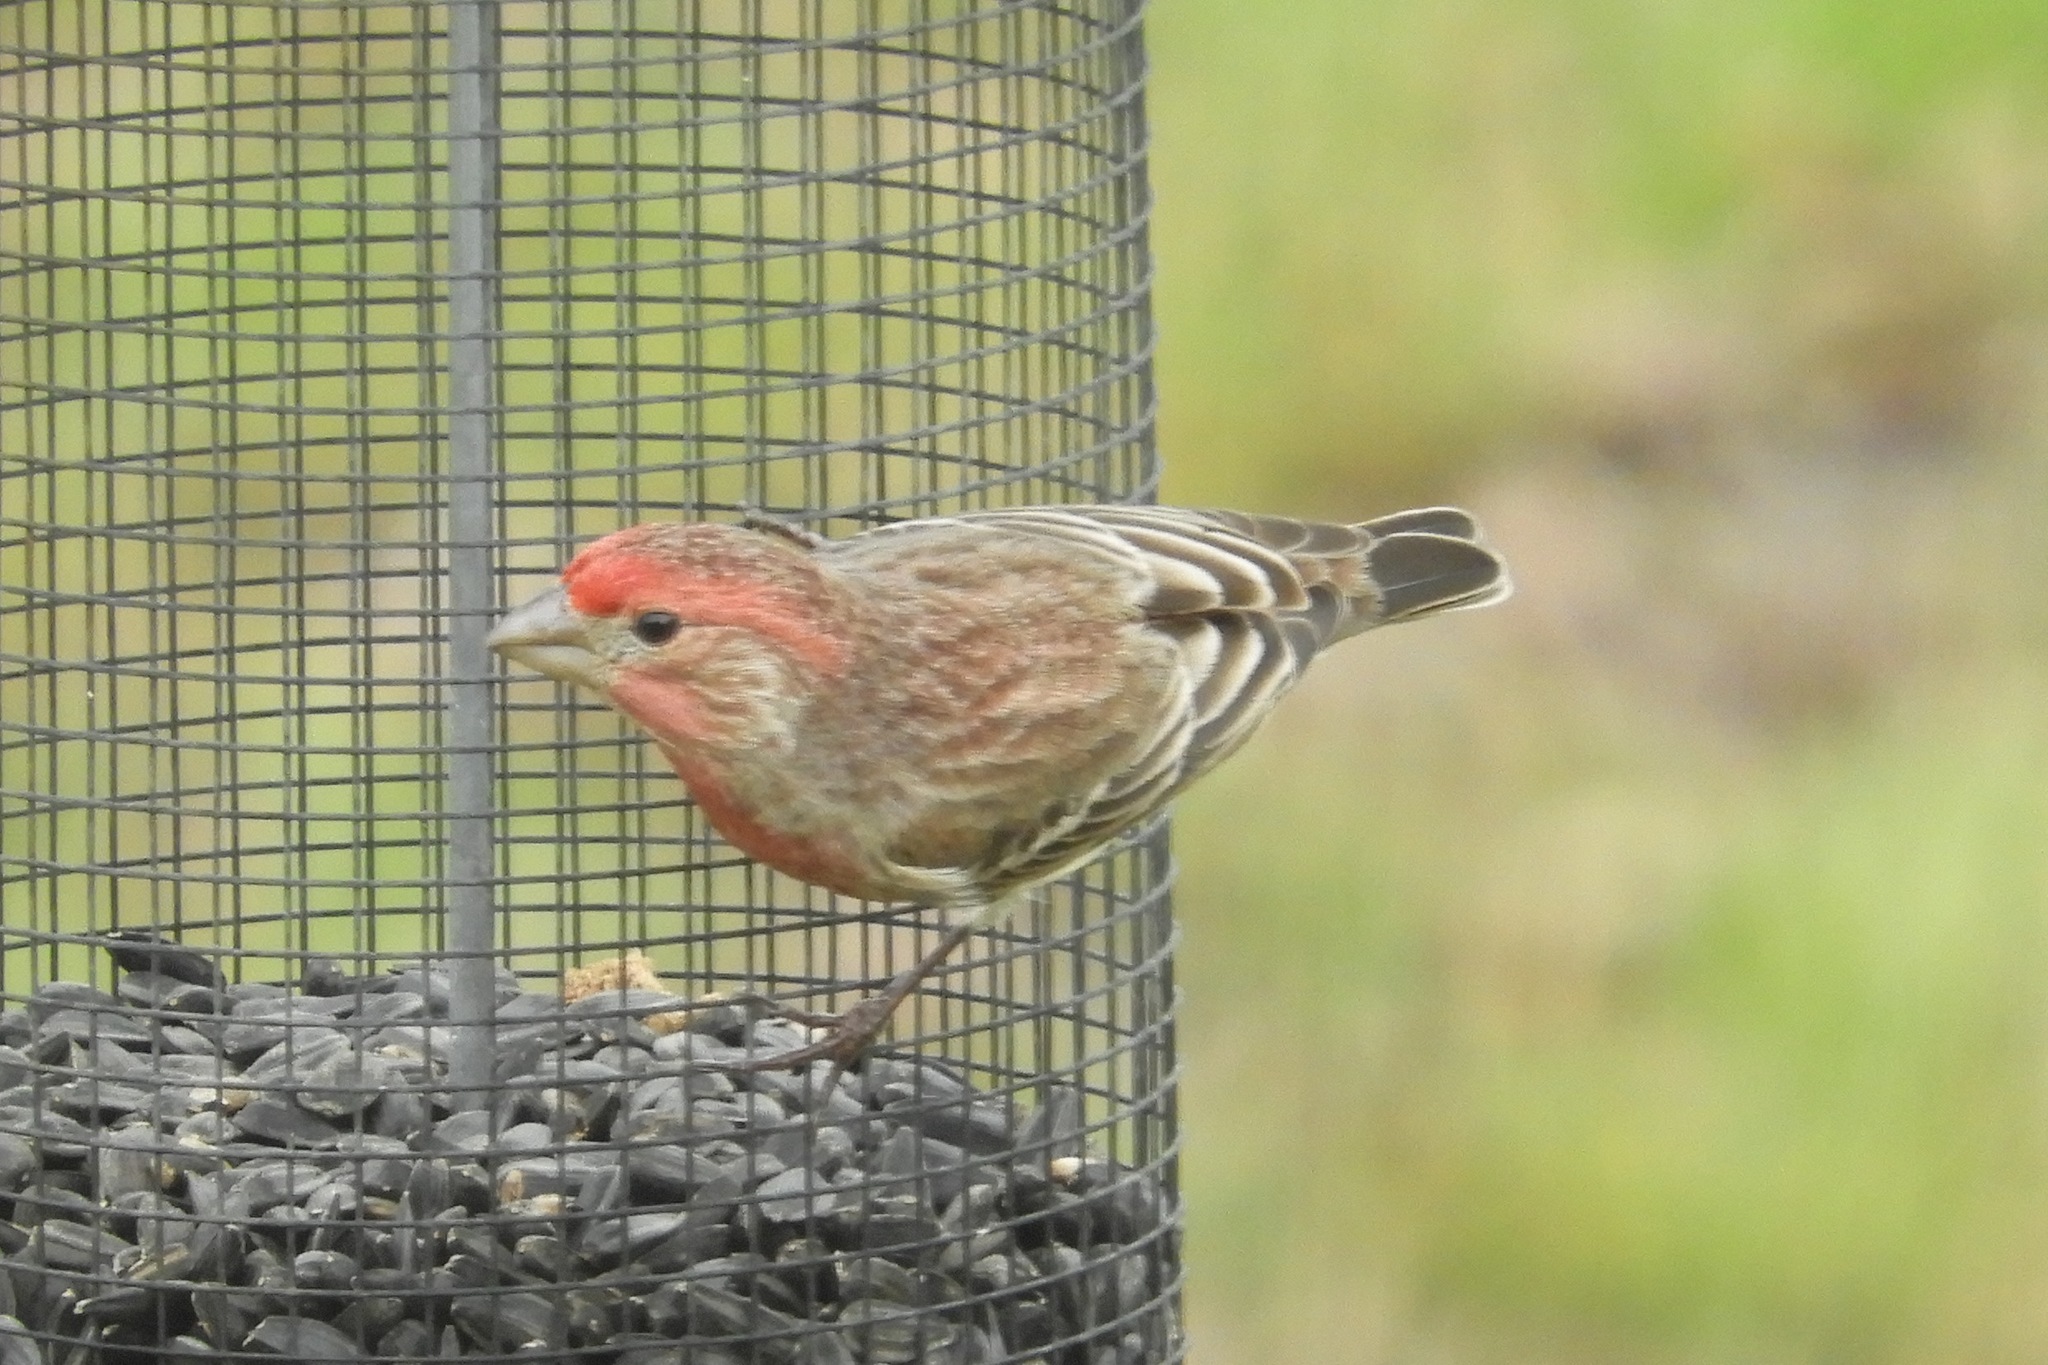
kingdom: Animalia
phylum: Chordata
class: Aves
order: Passeriformes
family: Fringillidae
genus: Haemorhous
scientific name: Haemorhous mexicanus
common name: House finch
